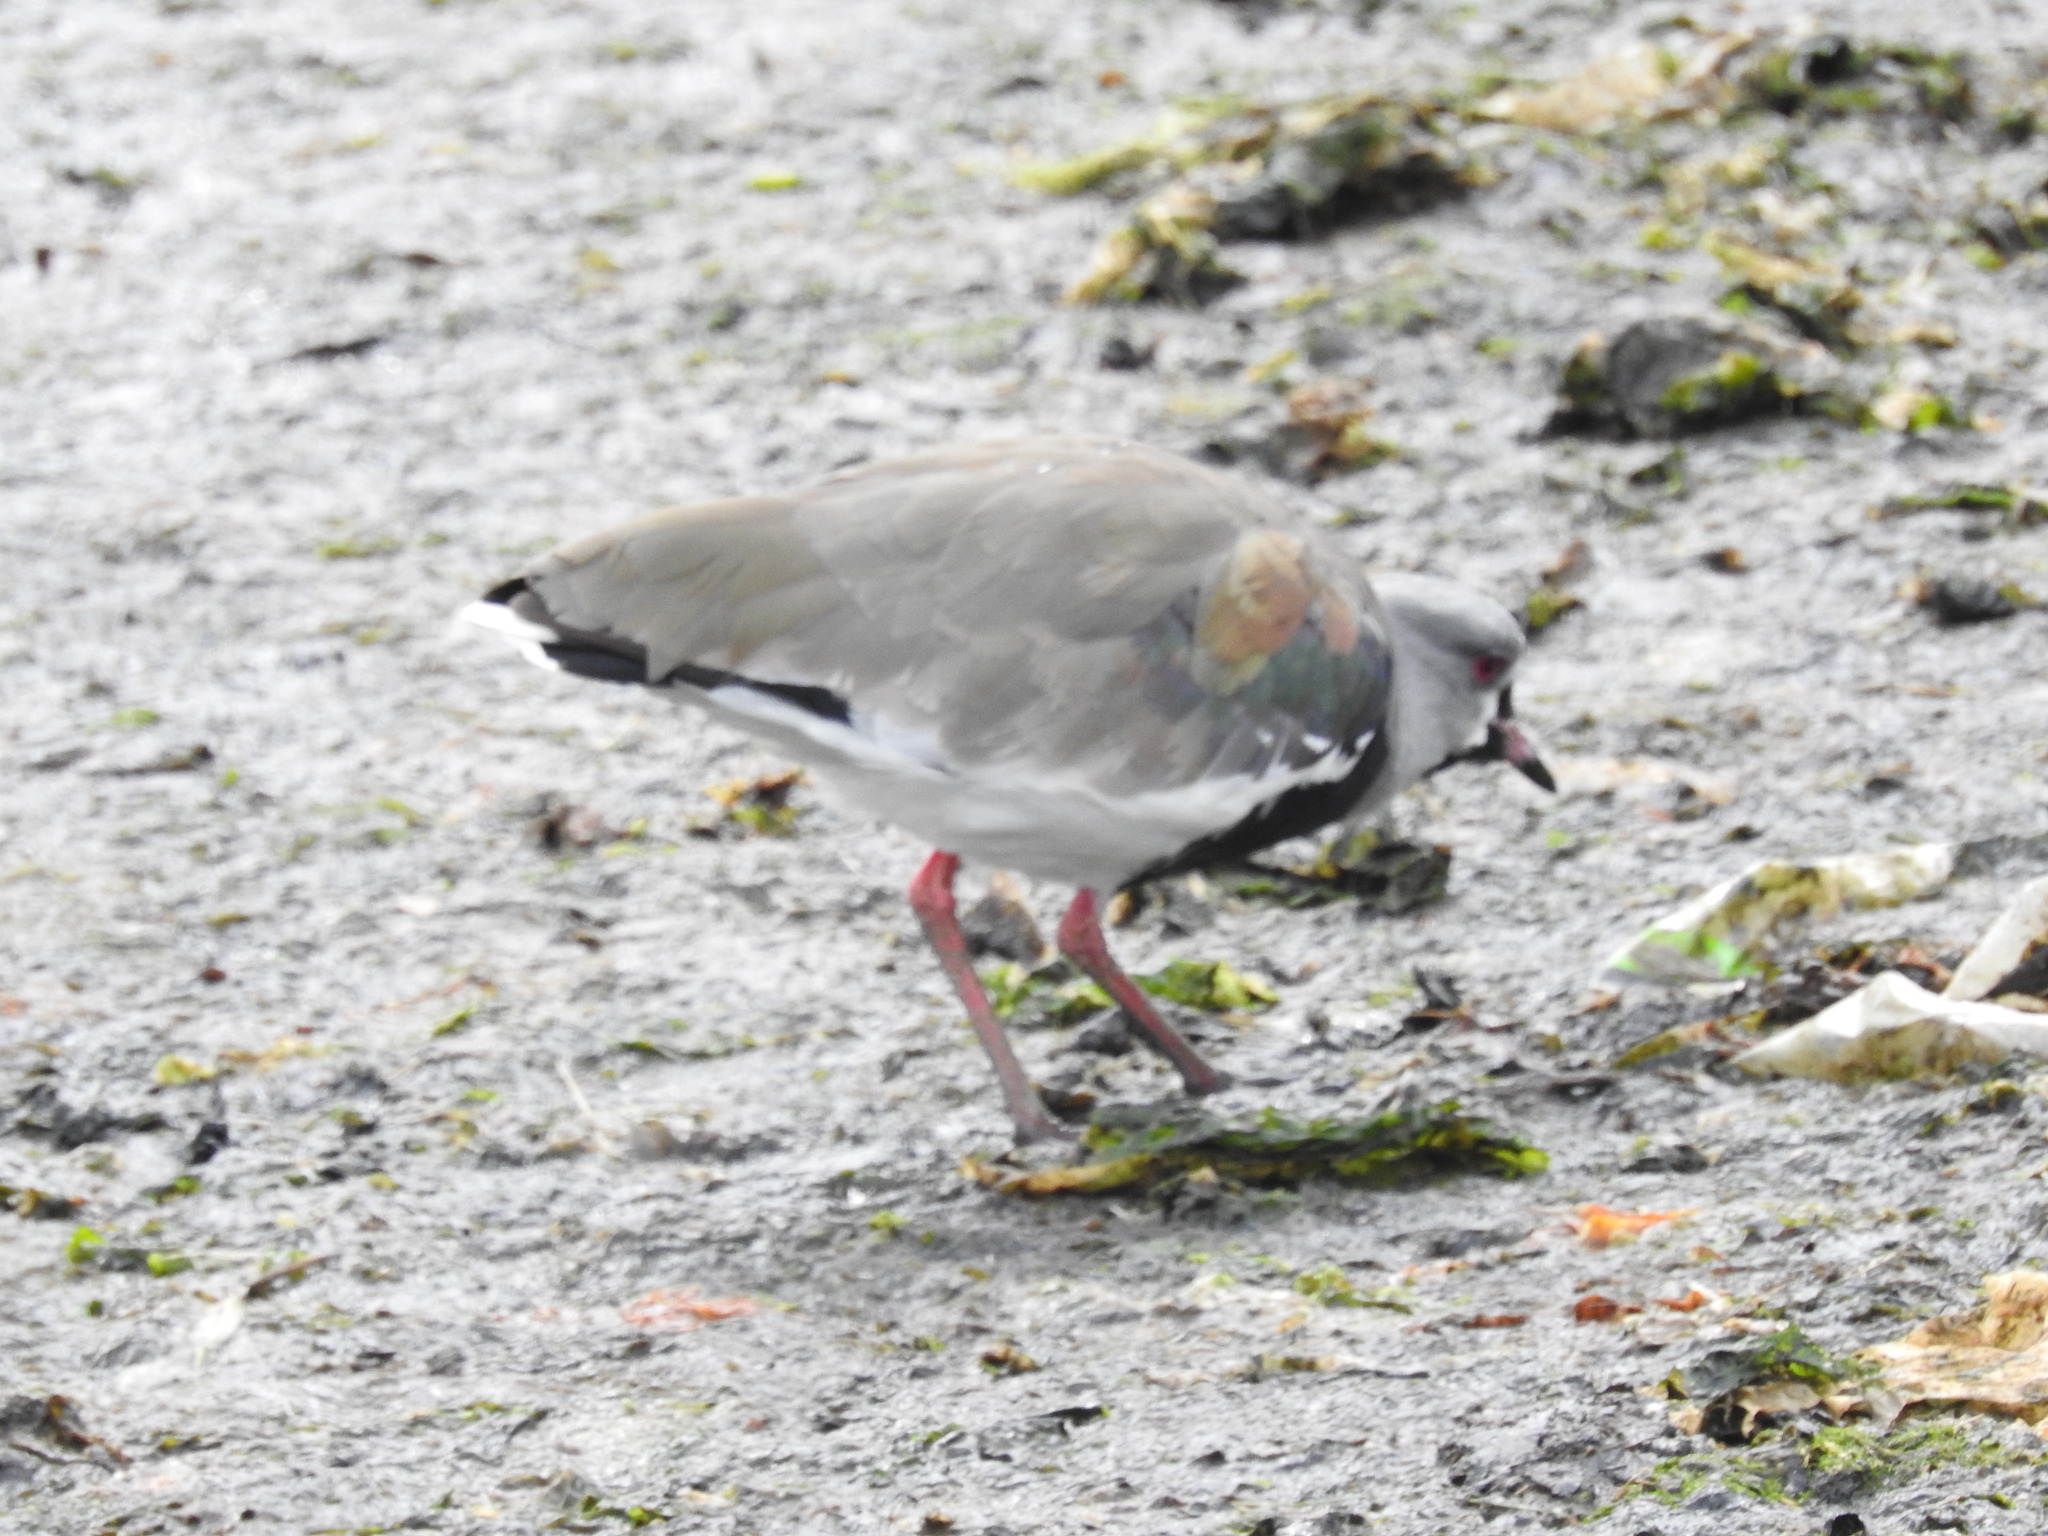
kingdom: Animalia
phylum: Chordata
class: Aves
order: Charadriiformes
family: Charadriidae
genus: Vanellus
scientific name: Vanellus chilensis
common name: Southern lapwing
